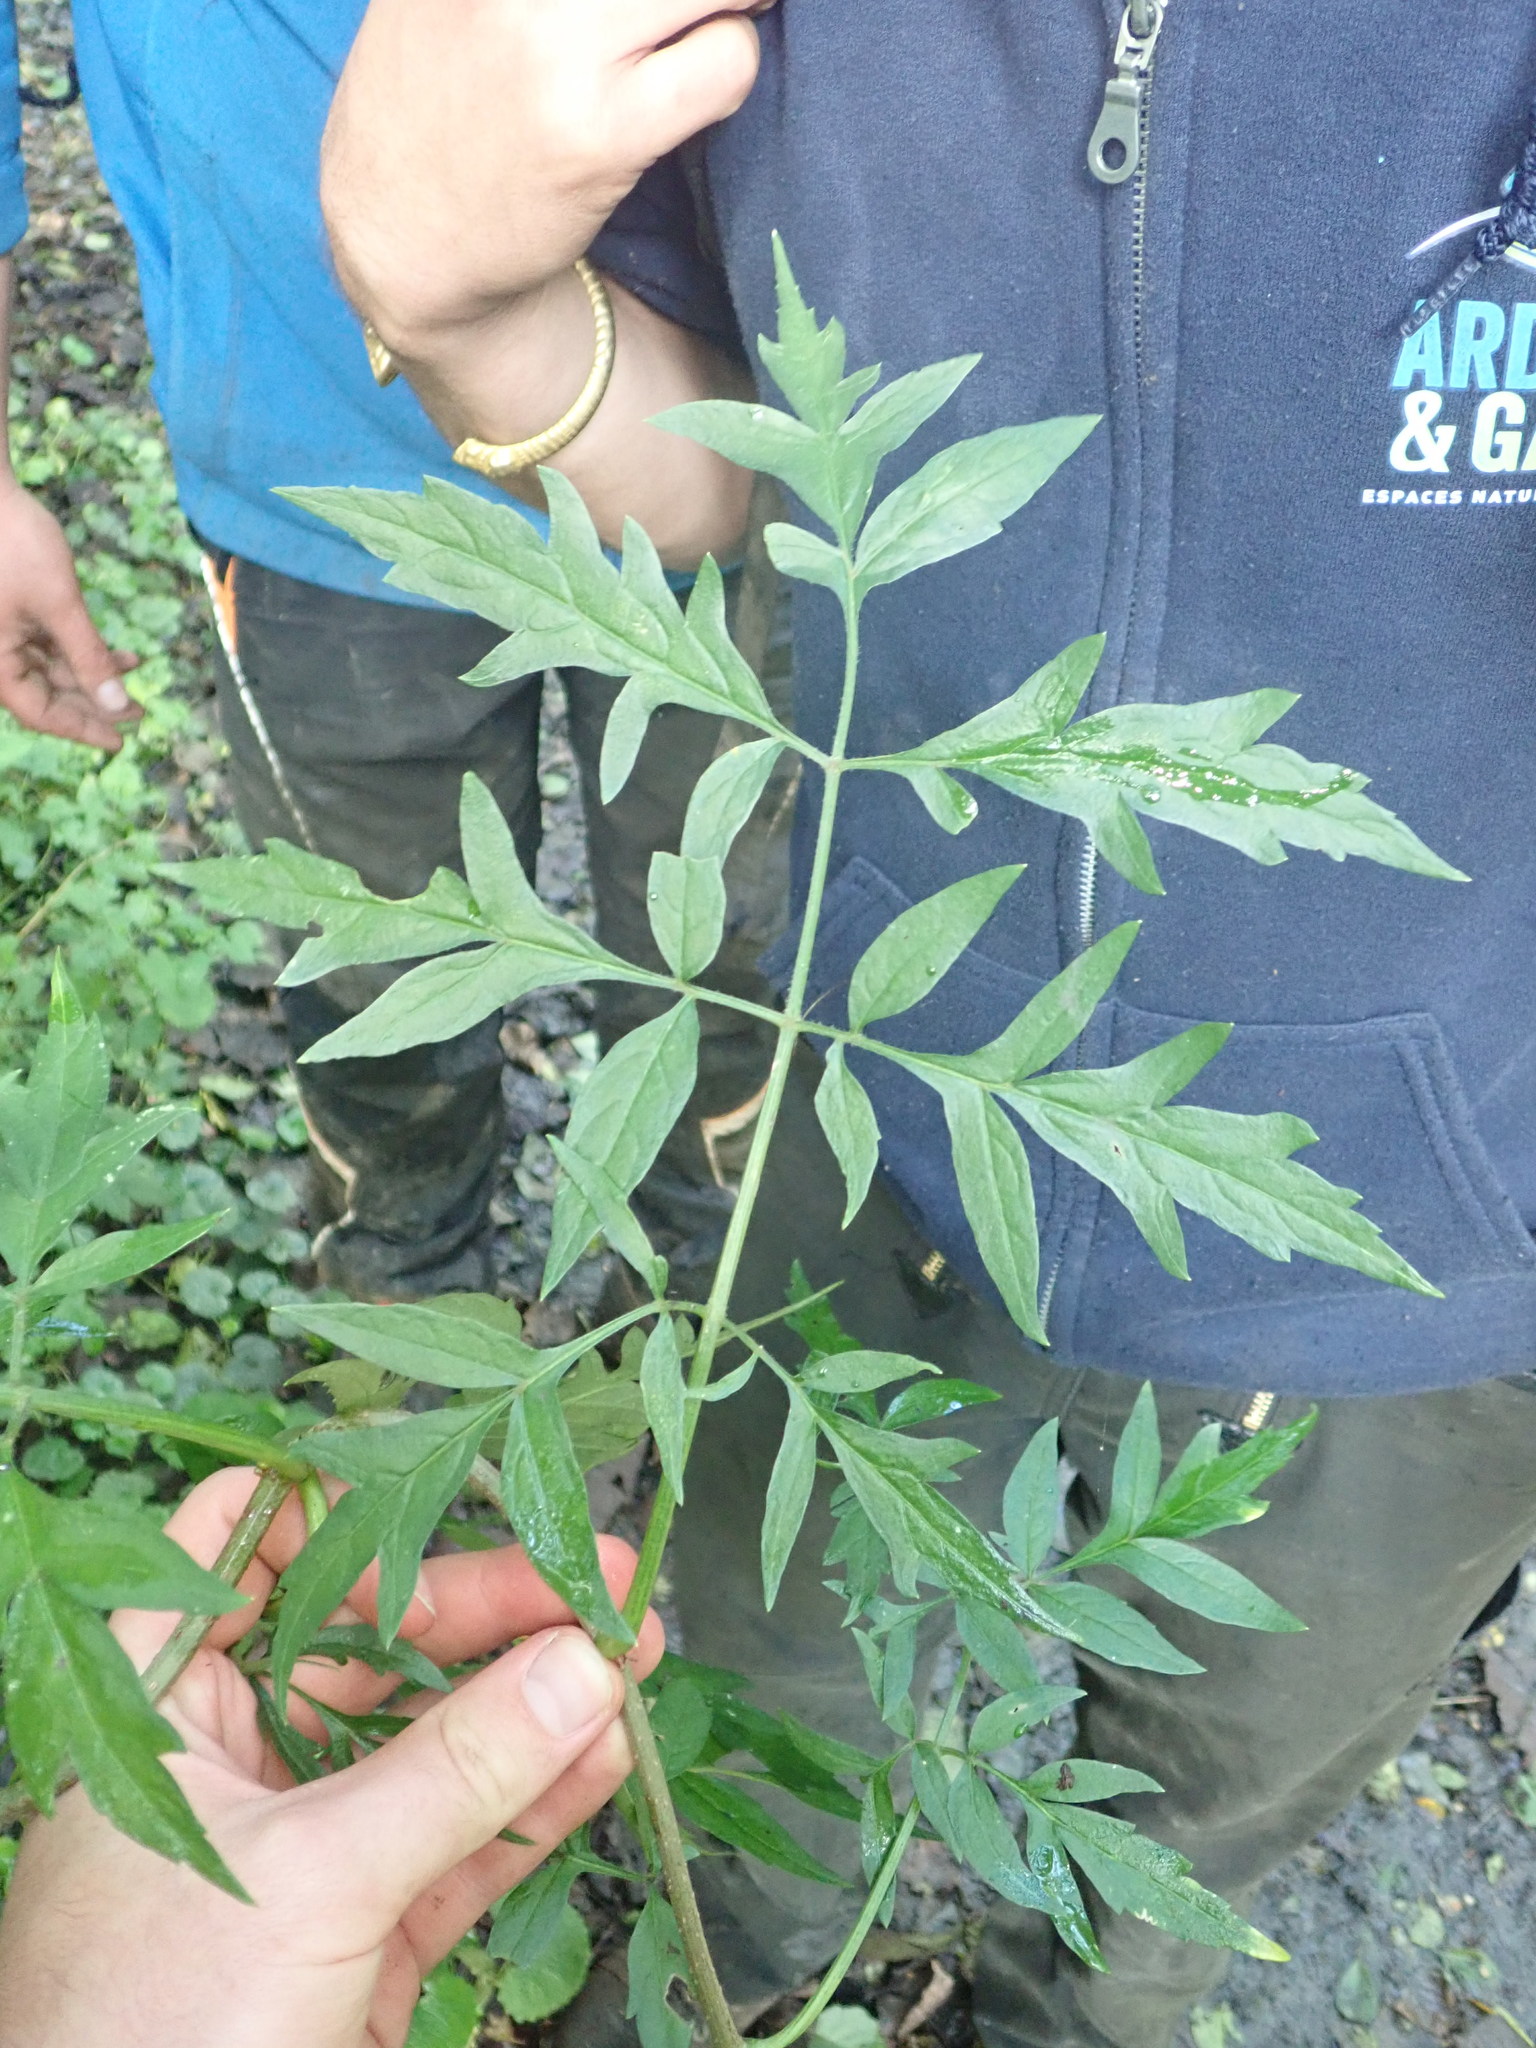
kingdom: Plantae
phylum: Tracheophyta
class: Magnoliopsida
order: Dipsacales
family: Viburnaceae
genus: Sambucus
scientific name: Sambucus nigra
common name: Elder
